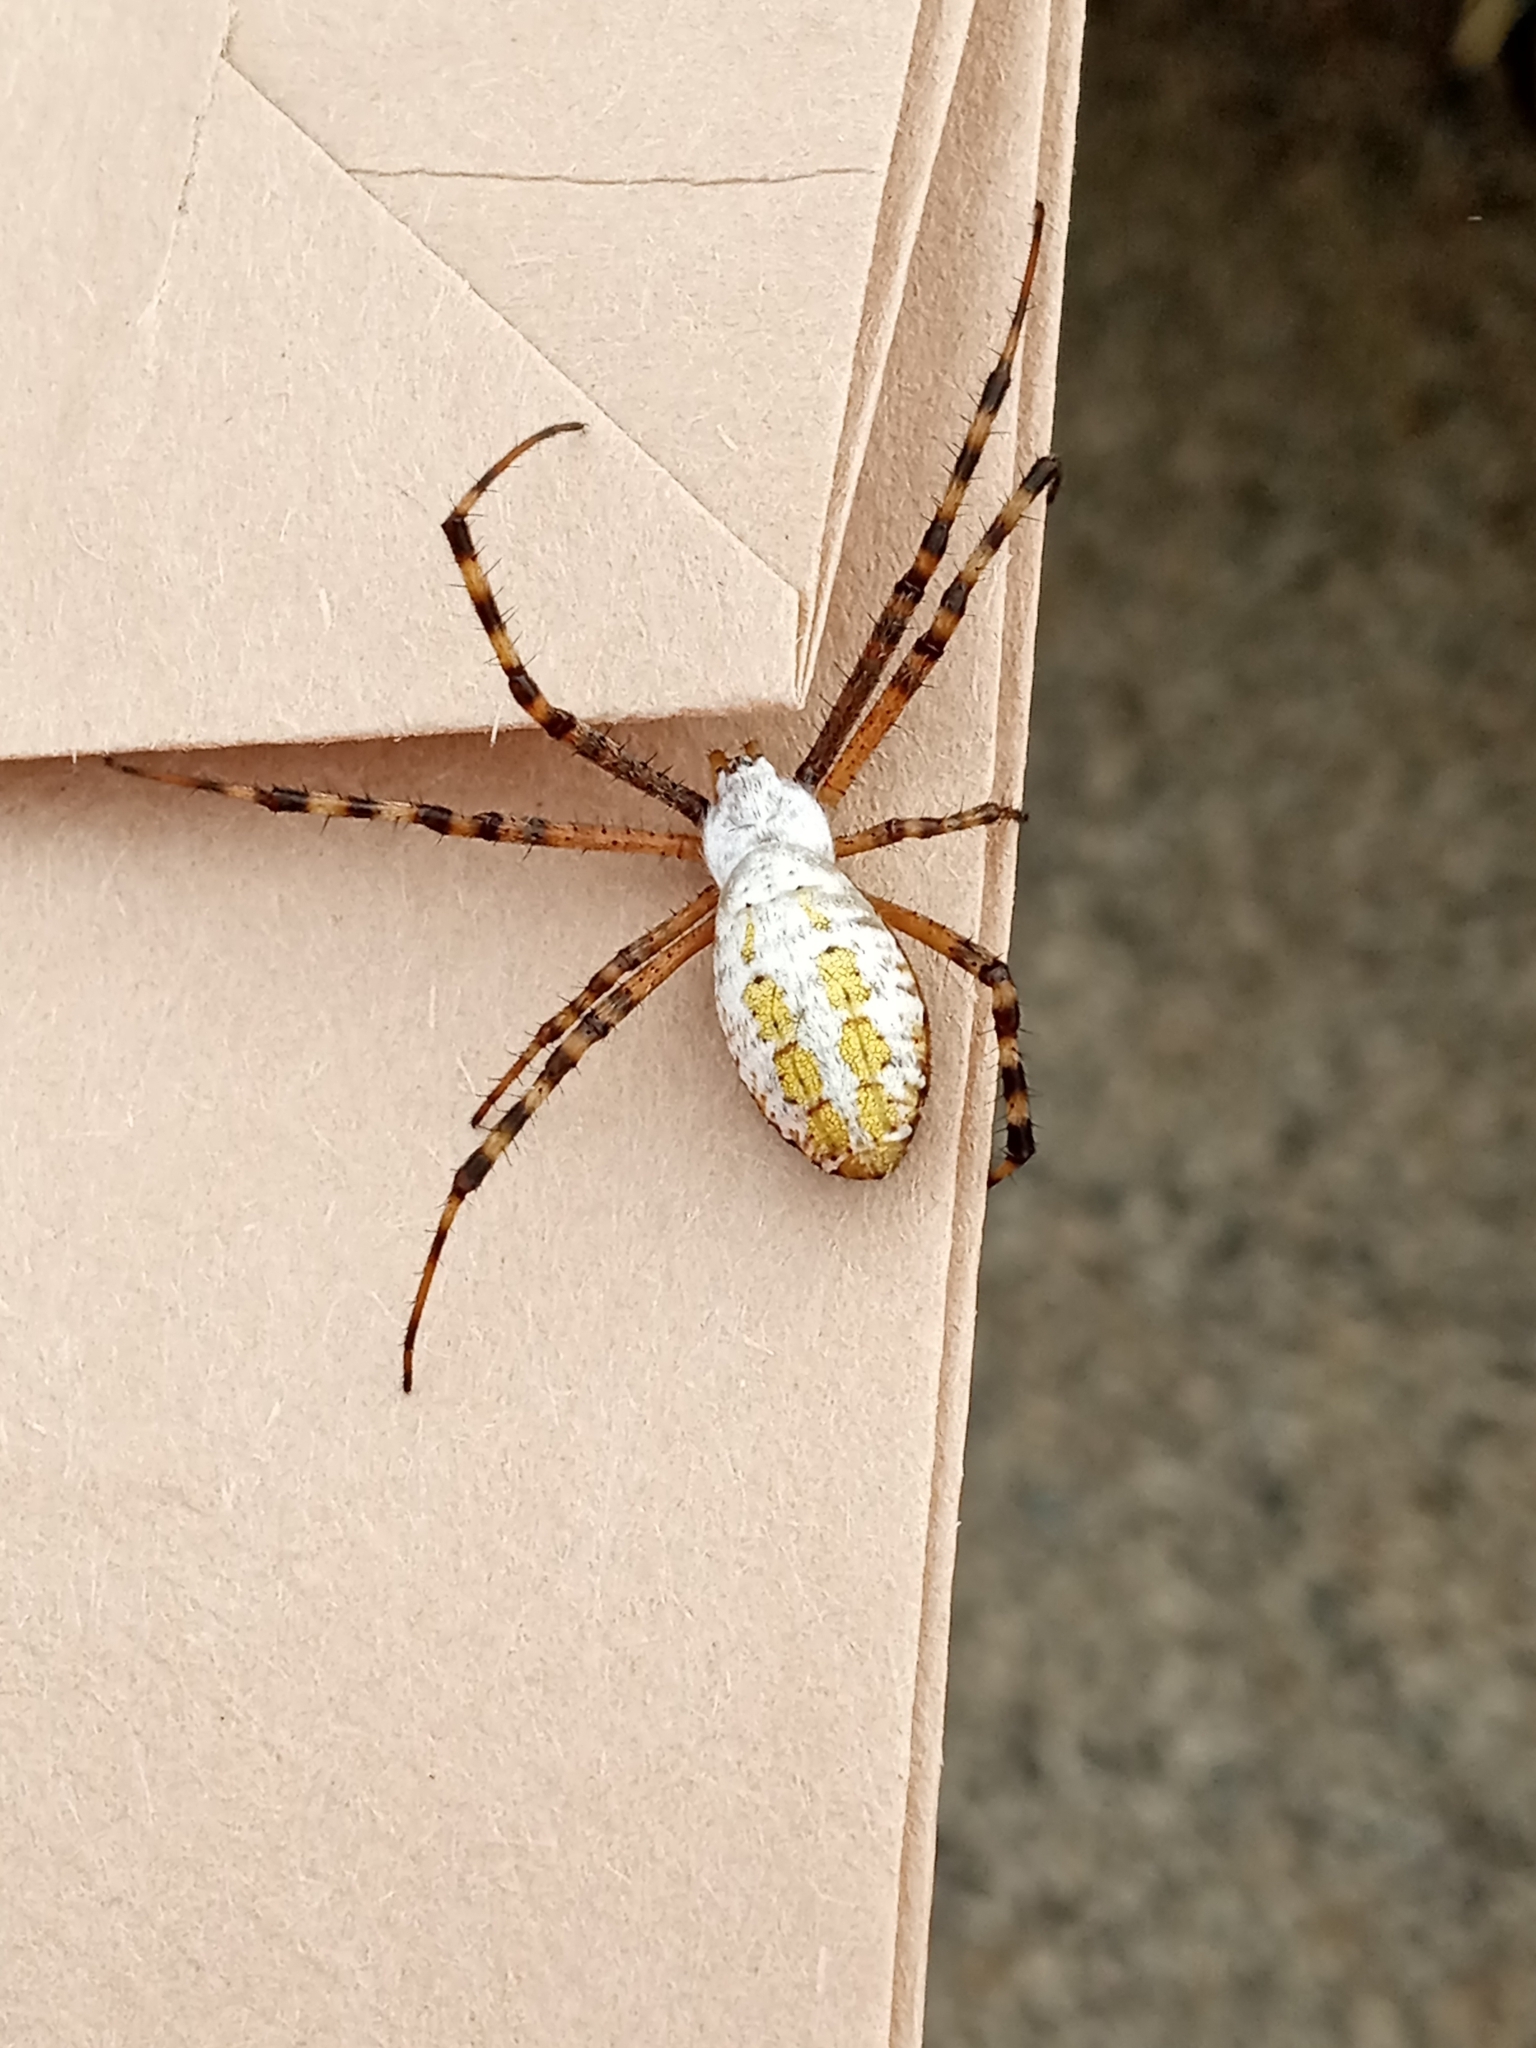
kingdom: Animalia
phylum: Arthropoda
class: Arachnida
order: Araneae
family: Araneidae
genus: Argiope
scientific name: Argiope trifasciata
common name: Banded garden spider
